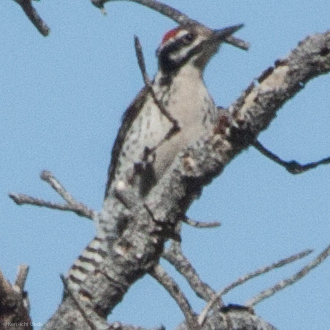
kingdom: Animalia
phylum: Chordata
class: Aves
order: Piciformes
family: Picidae
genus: Dryobates
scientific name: Dryobates scalaris
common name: Ladder-backed woodpecker
